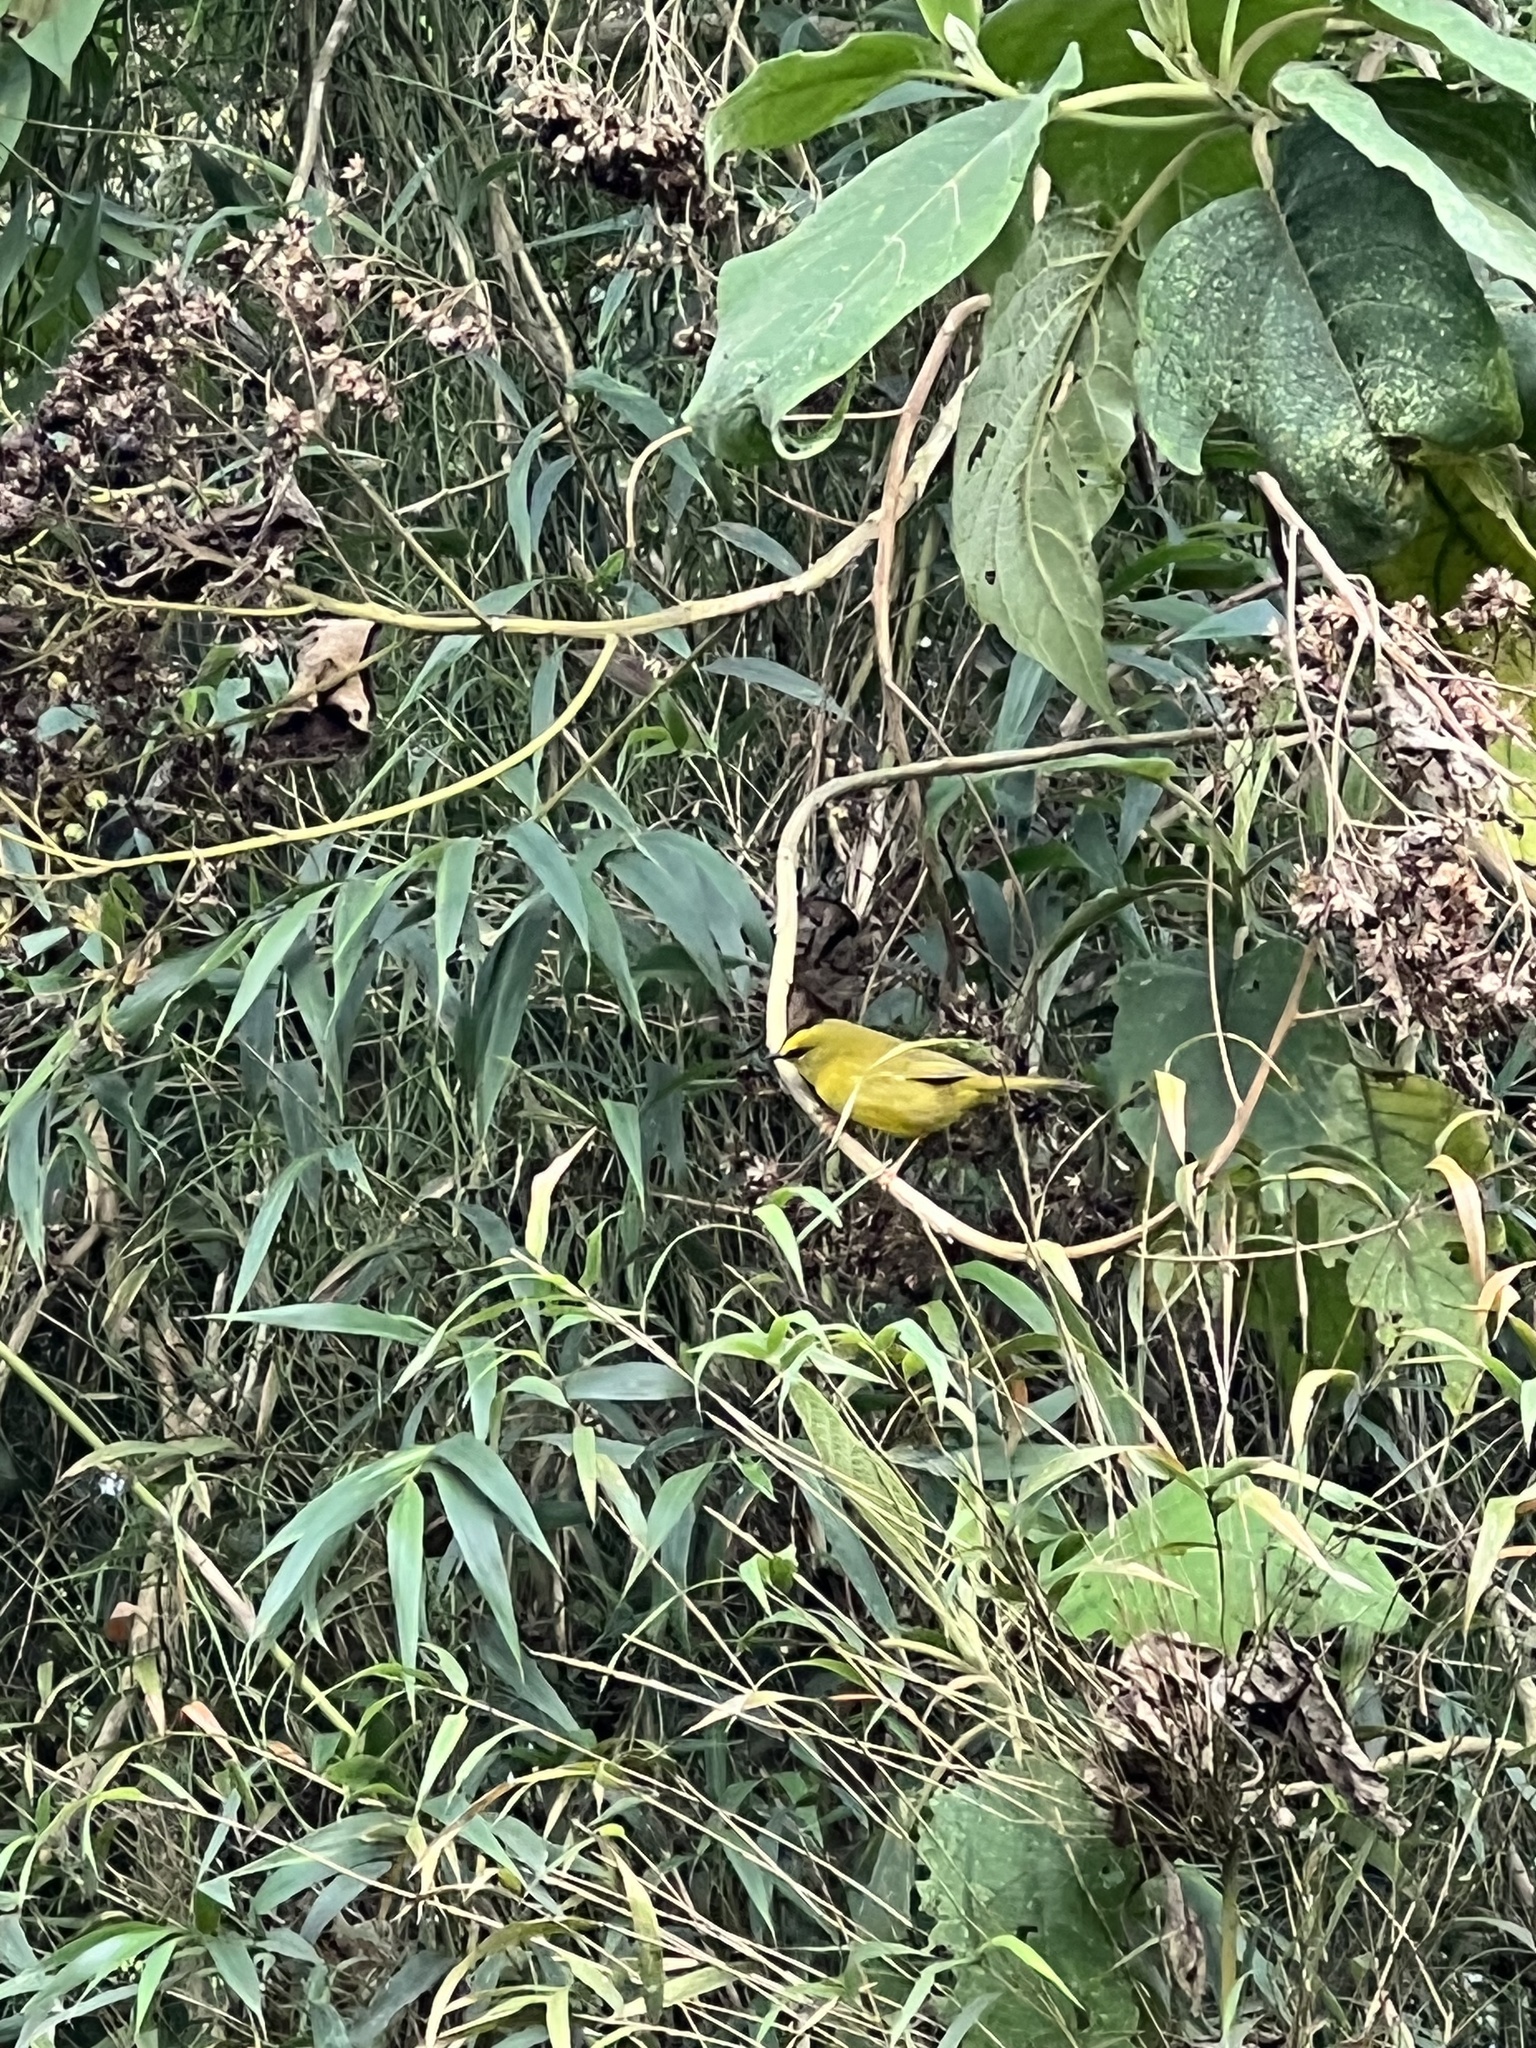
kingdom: Animalia
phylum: Chordata
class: Aves
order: Passeriformes
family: Parulidae
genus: Myiothlypis
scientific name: Myiothlypis nigrocristata
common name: Black-crested warbler
